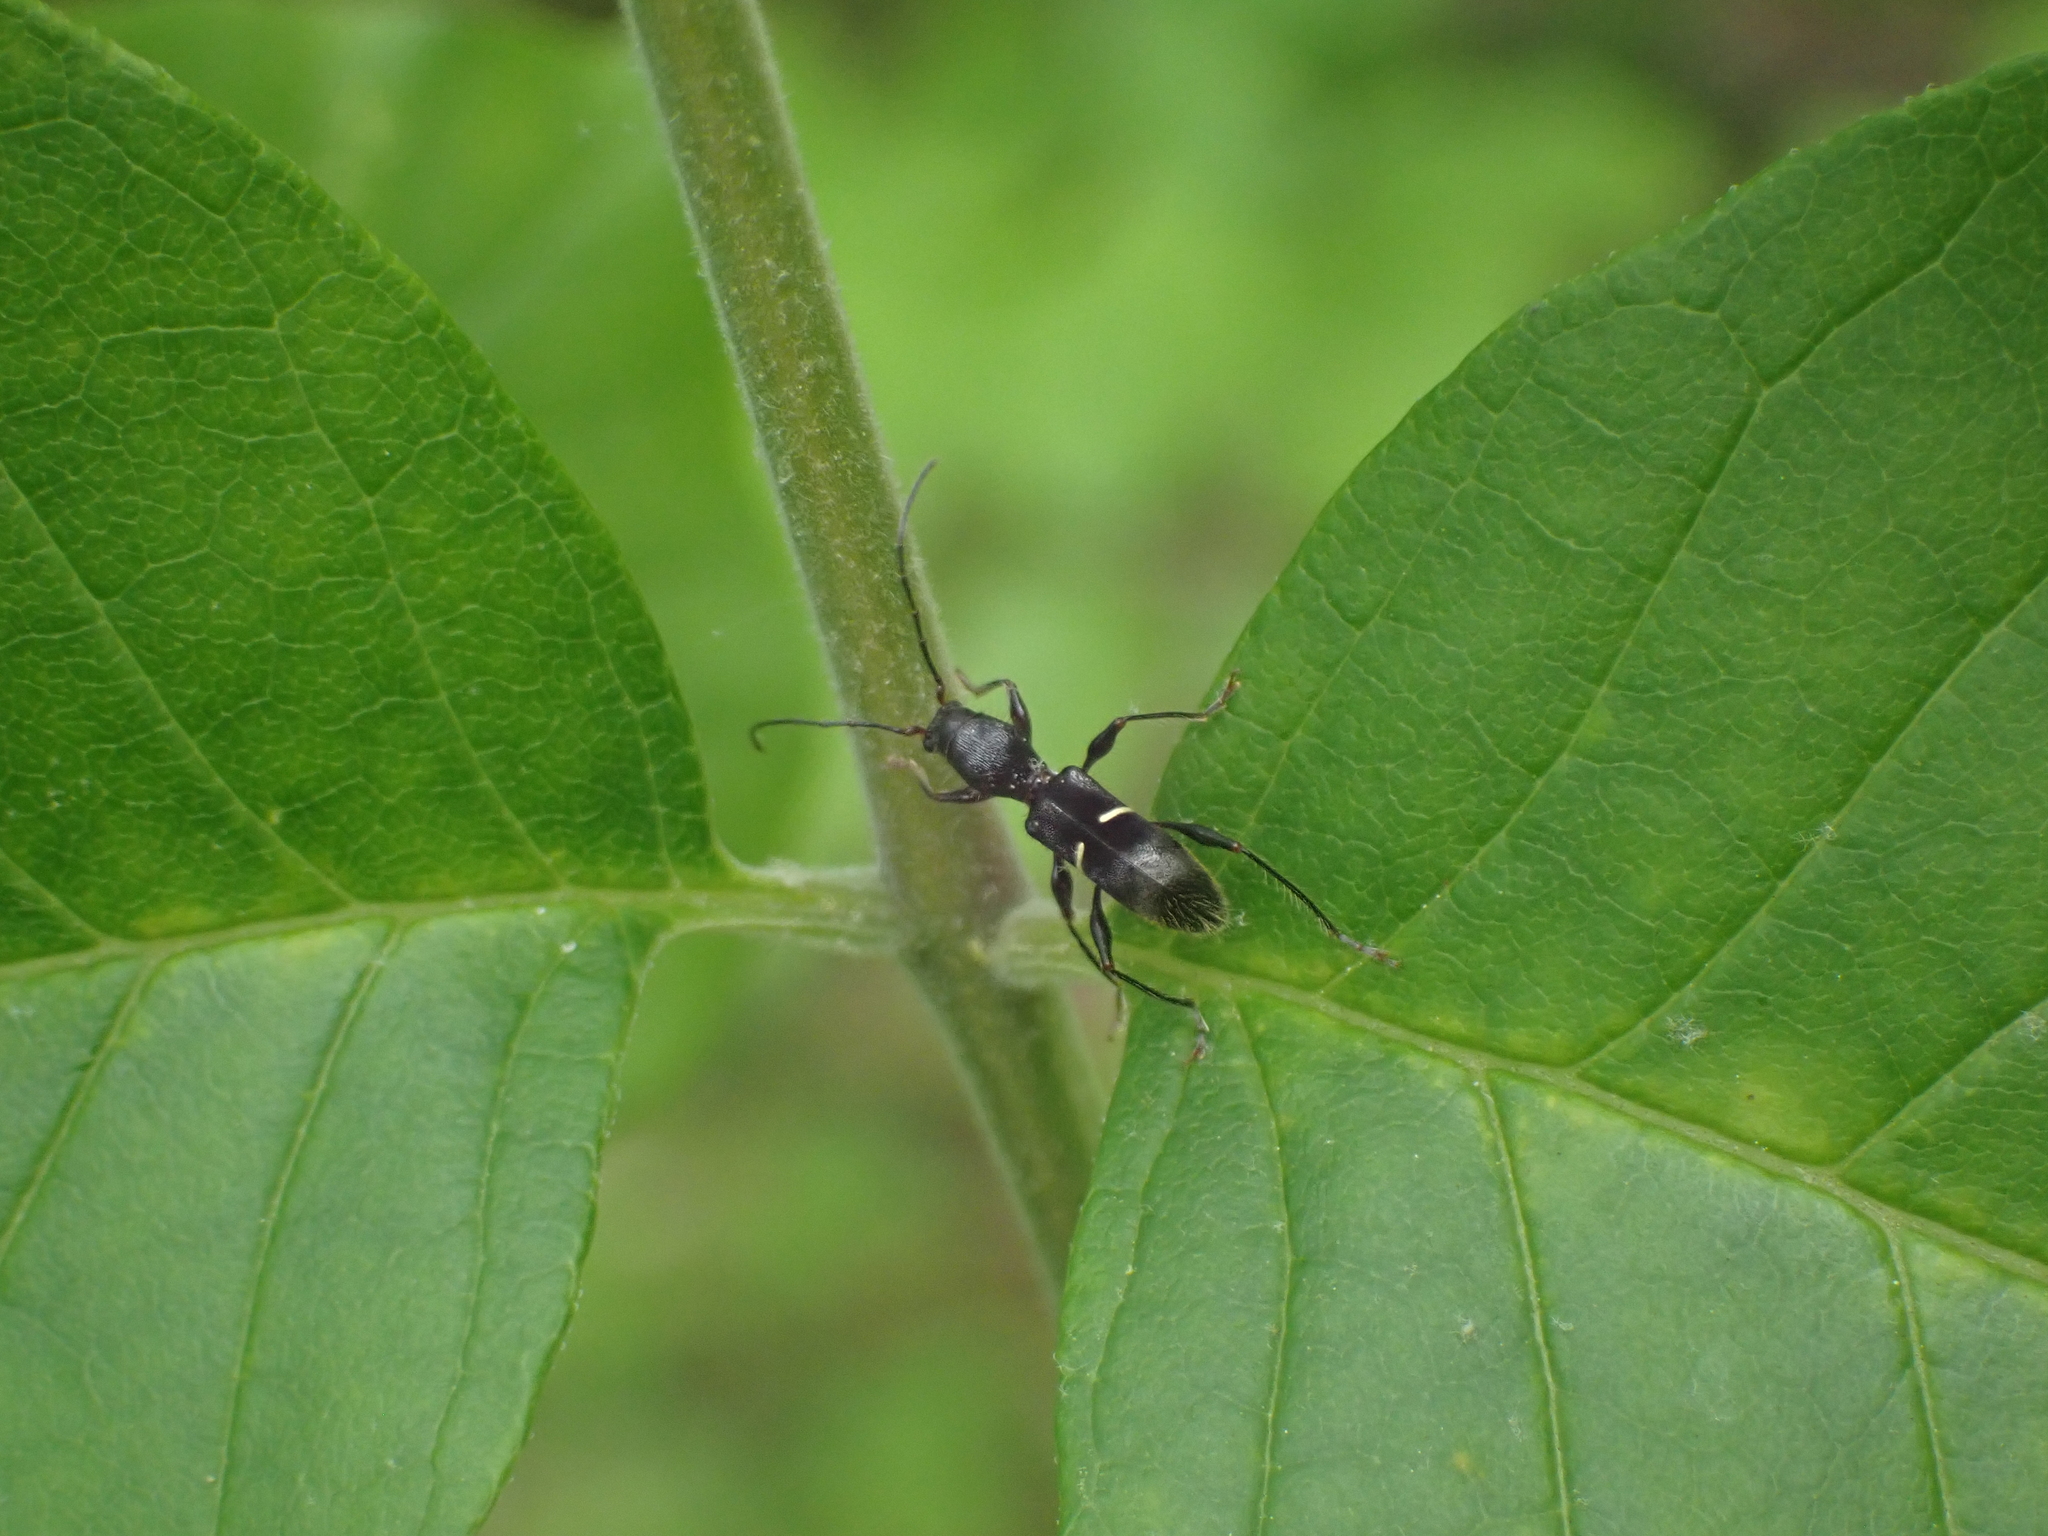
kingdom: Animalia
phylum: Arthropoda
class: Insecta
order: Coleoptera
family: Cerambycidae
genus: Euderces
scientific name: Euderces picipes
